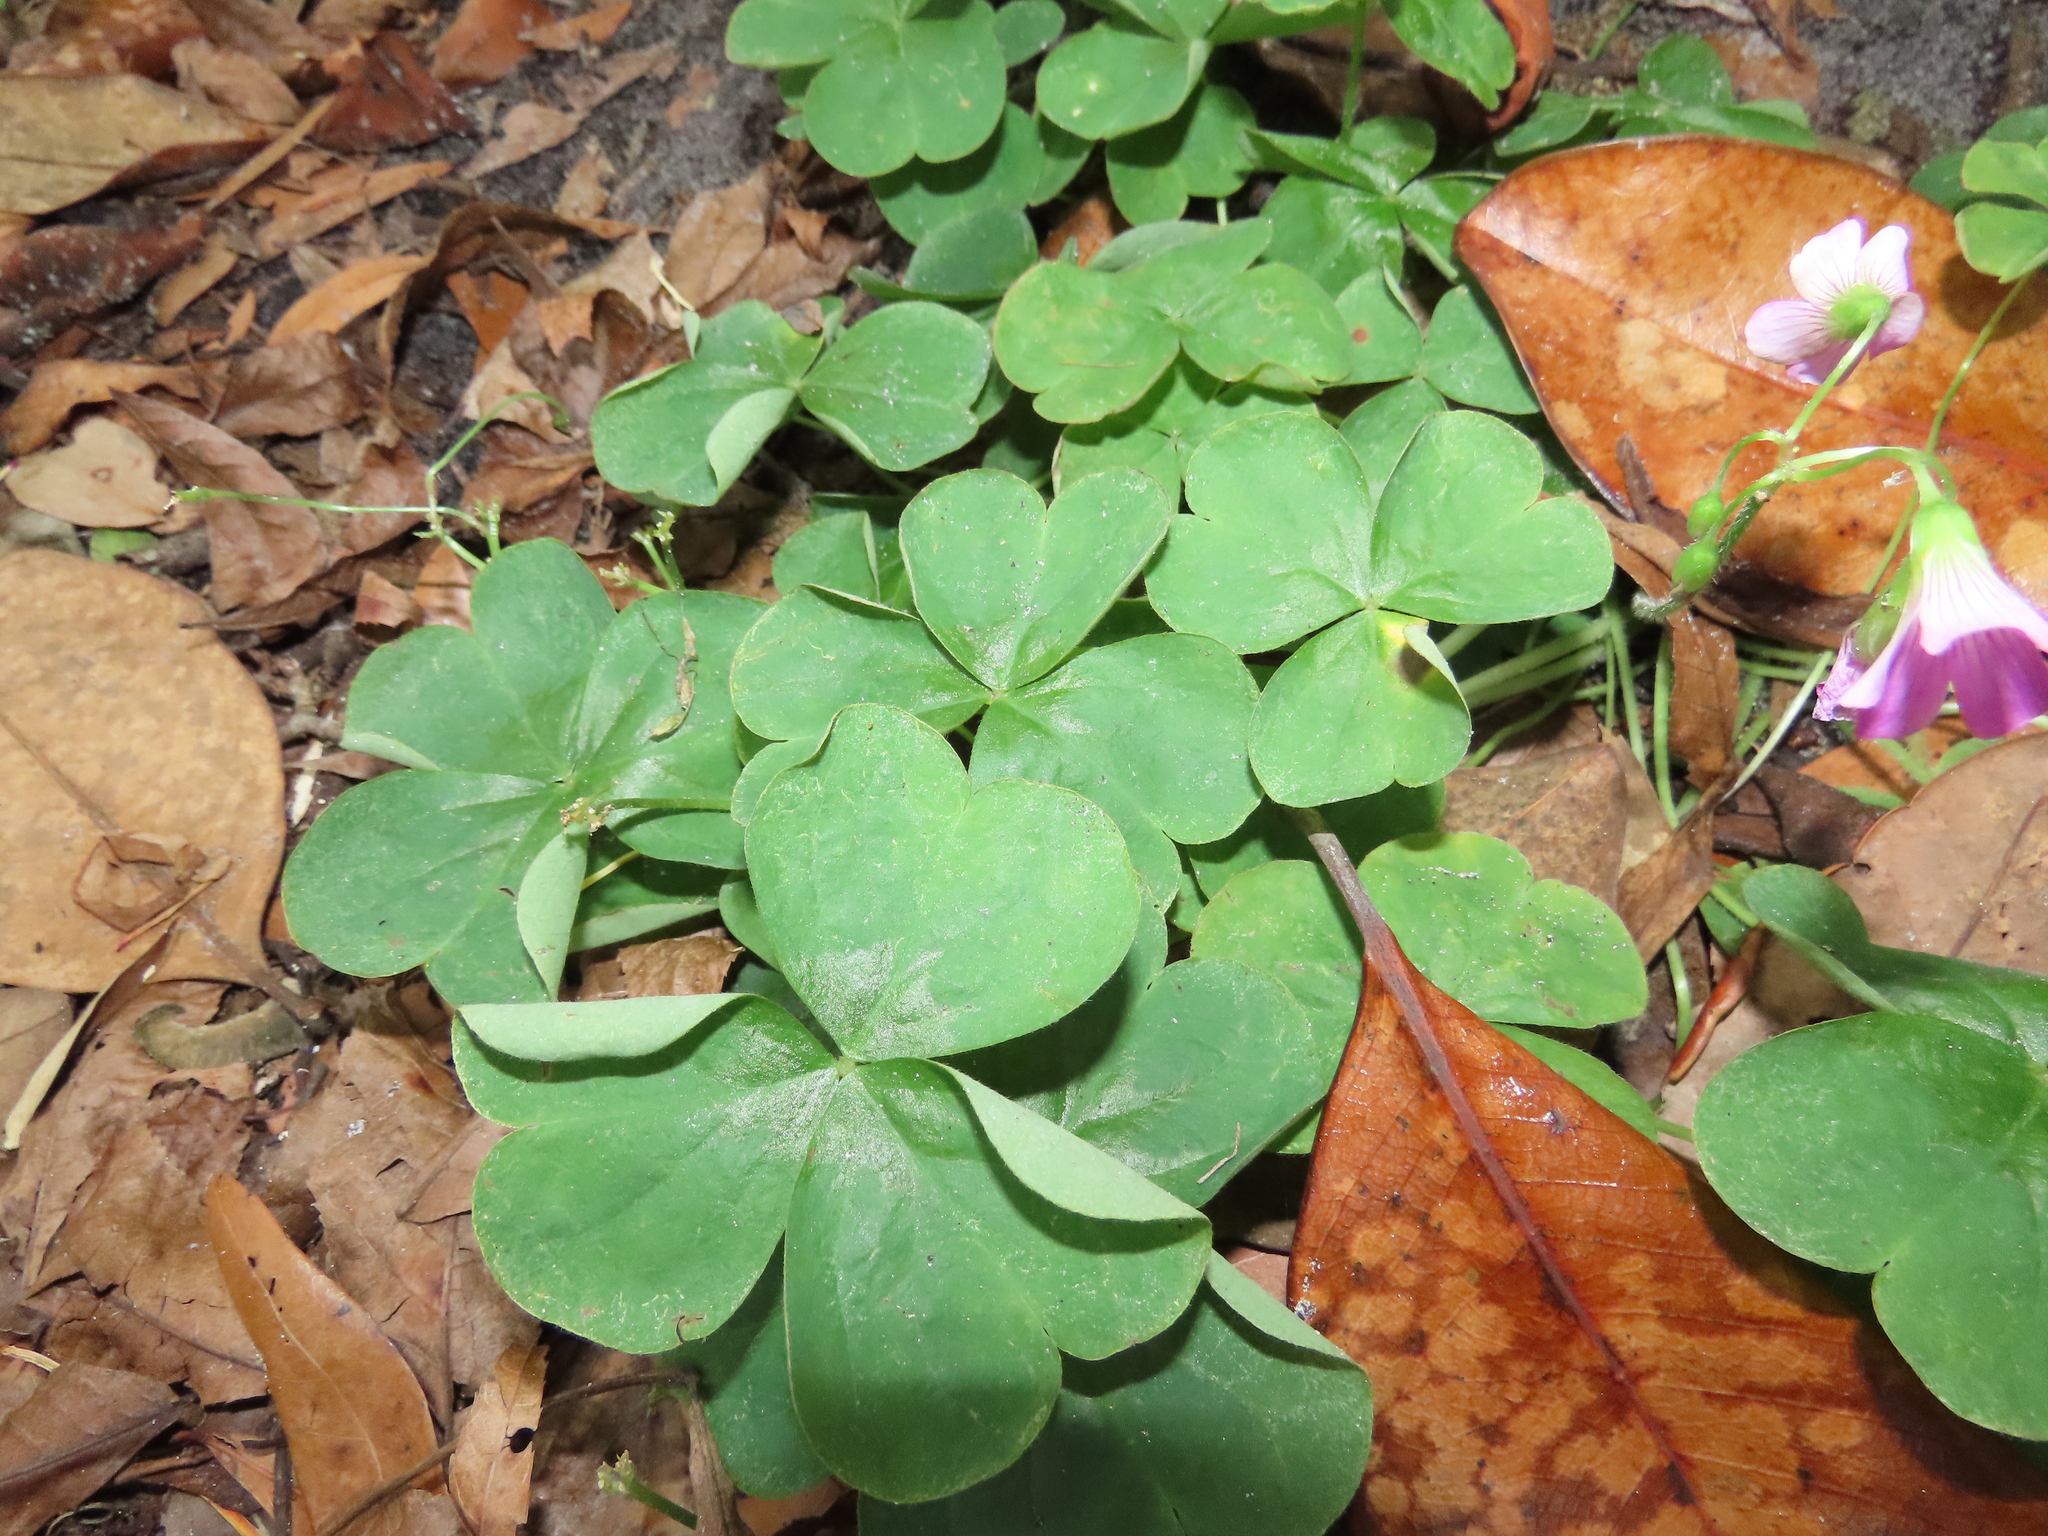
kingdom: Plantae
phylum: Tracheophyta
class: Magnoliopsida
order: Oxalidales
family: Oxalidaceae
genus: Oxalis
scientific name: Oxalis debilis
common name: Large-flowered pink-sorrel
